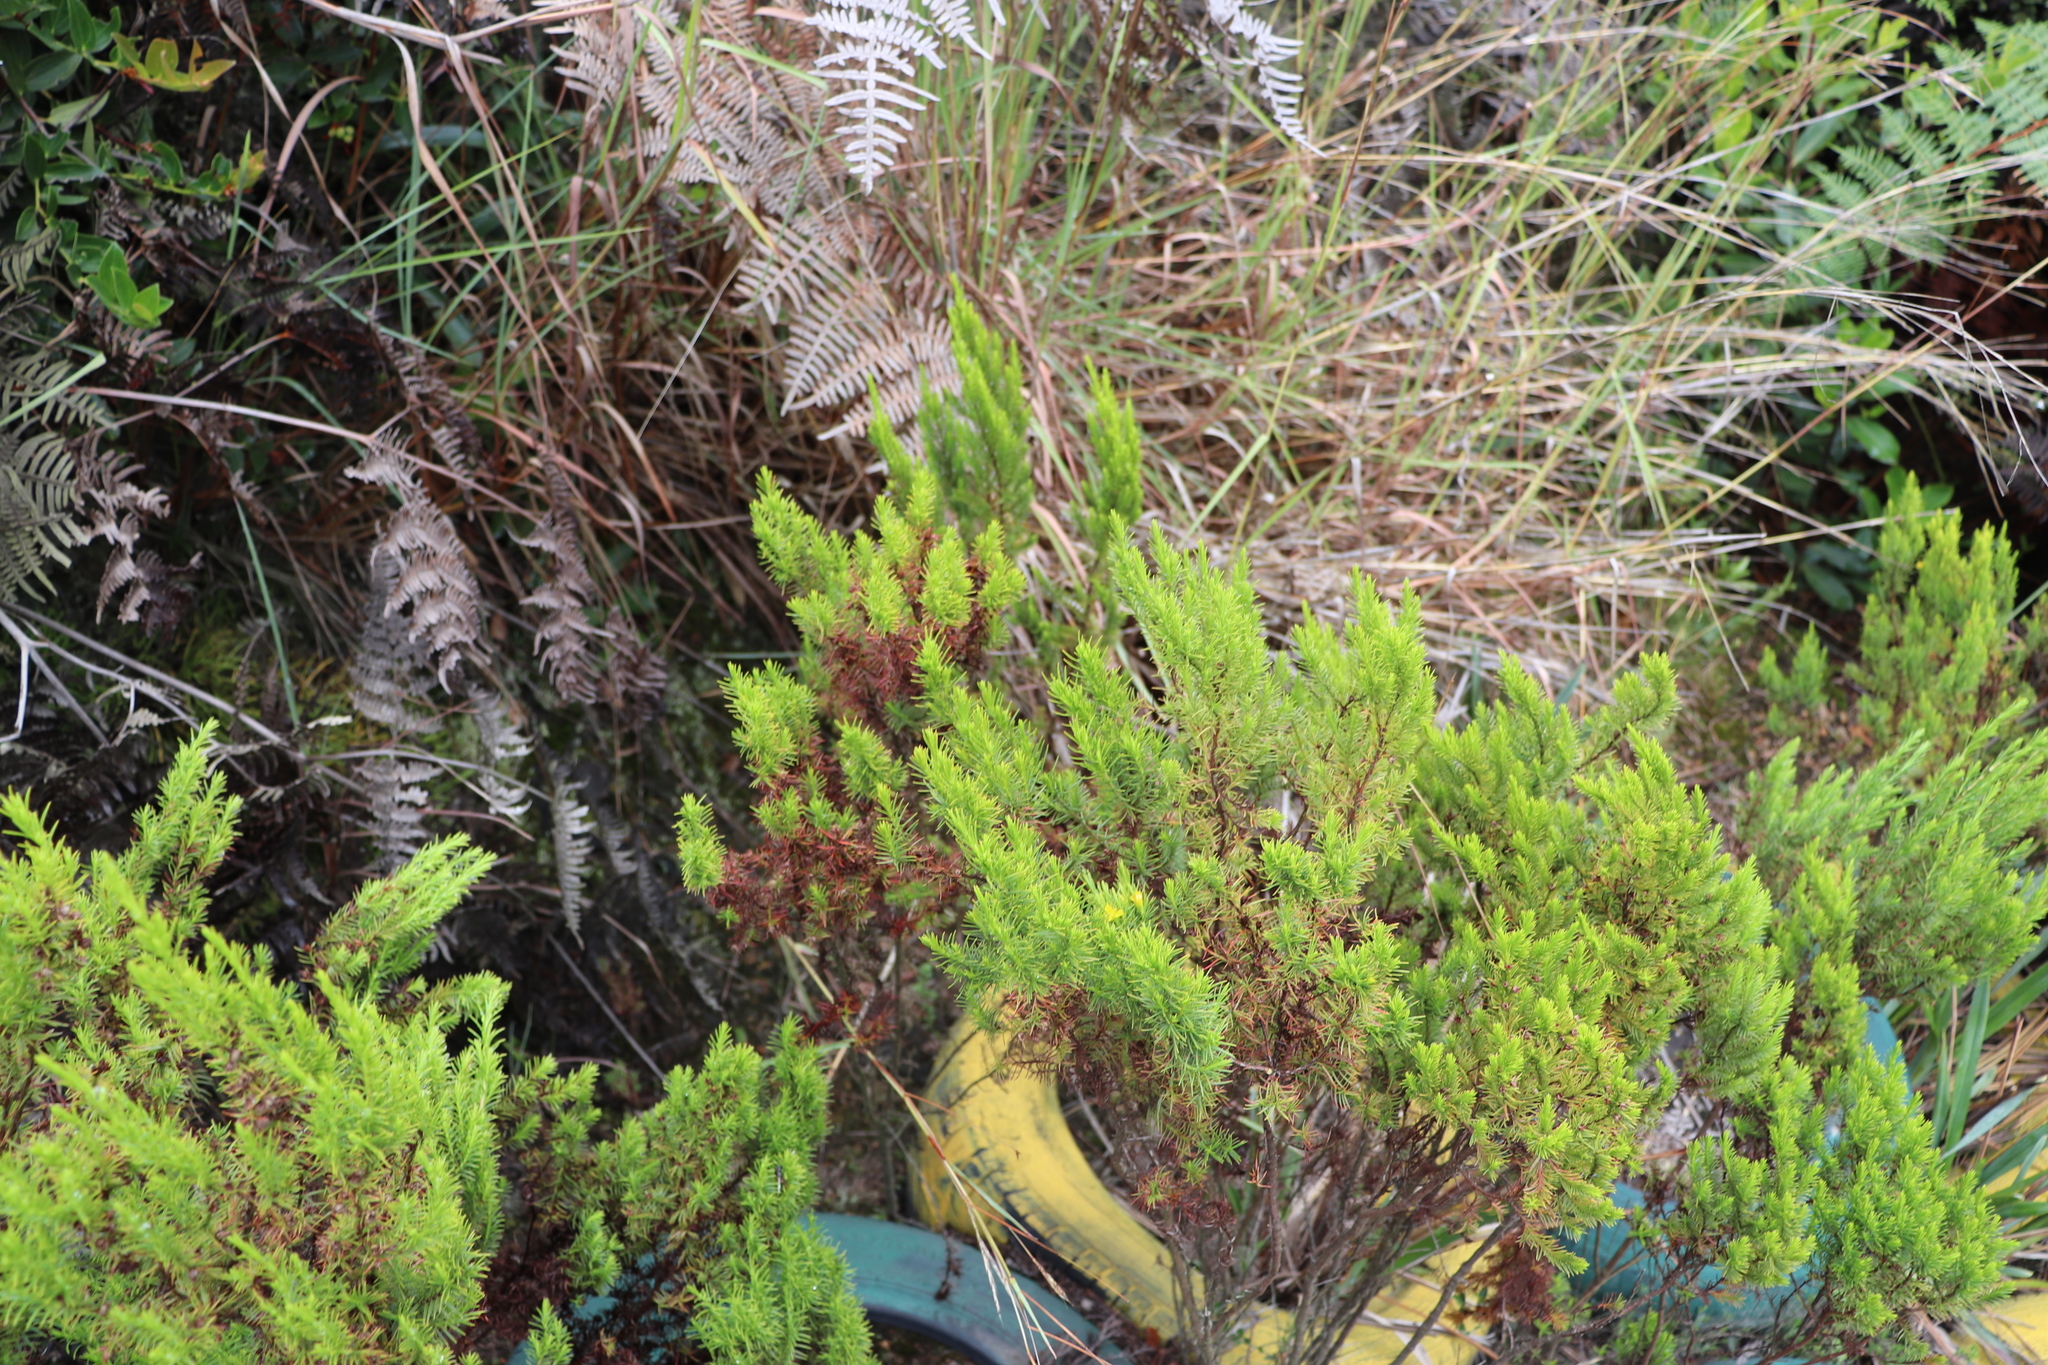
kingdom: Plantae
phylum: Tracheophyta
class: Magnoliopsida
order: Malpighiales
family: Hypericaceae
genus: Hypericum
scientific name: Hypericum juniperinum
